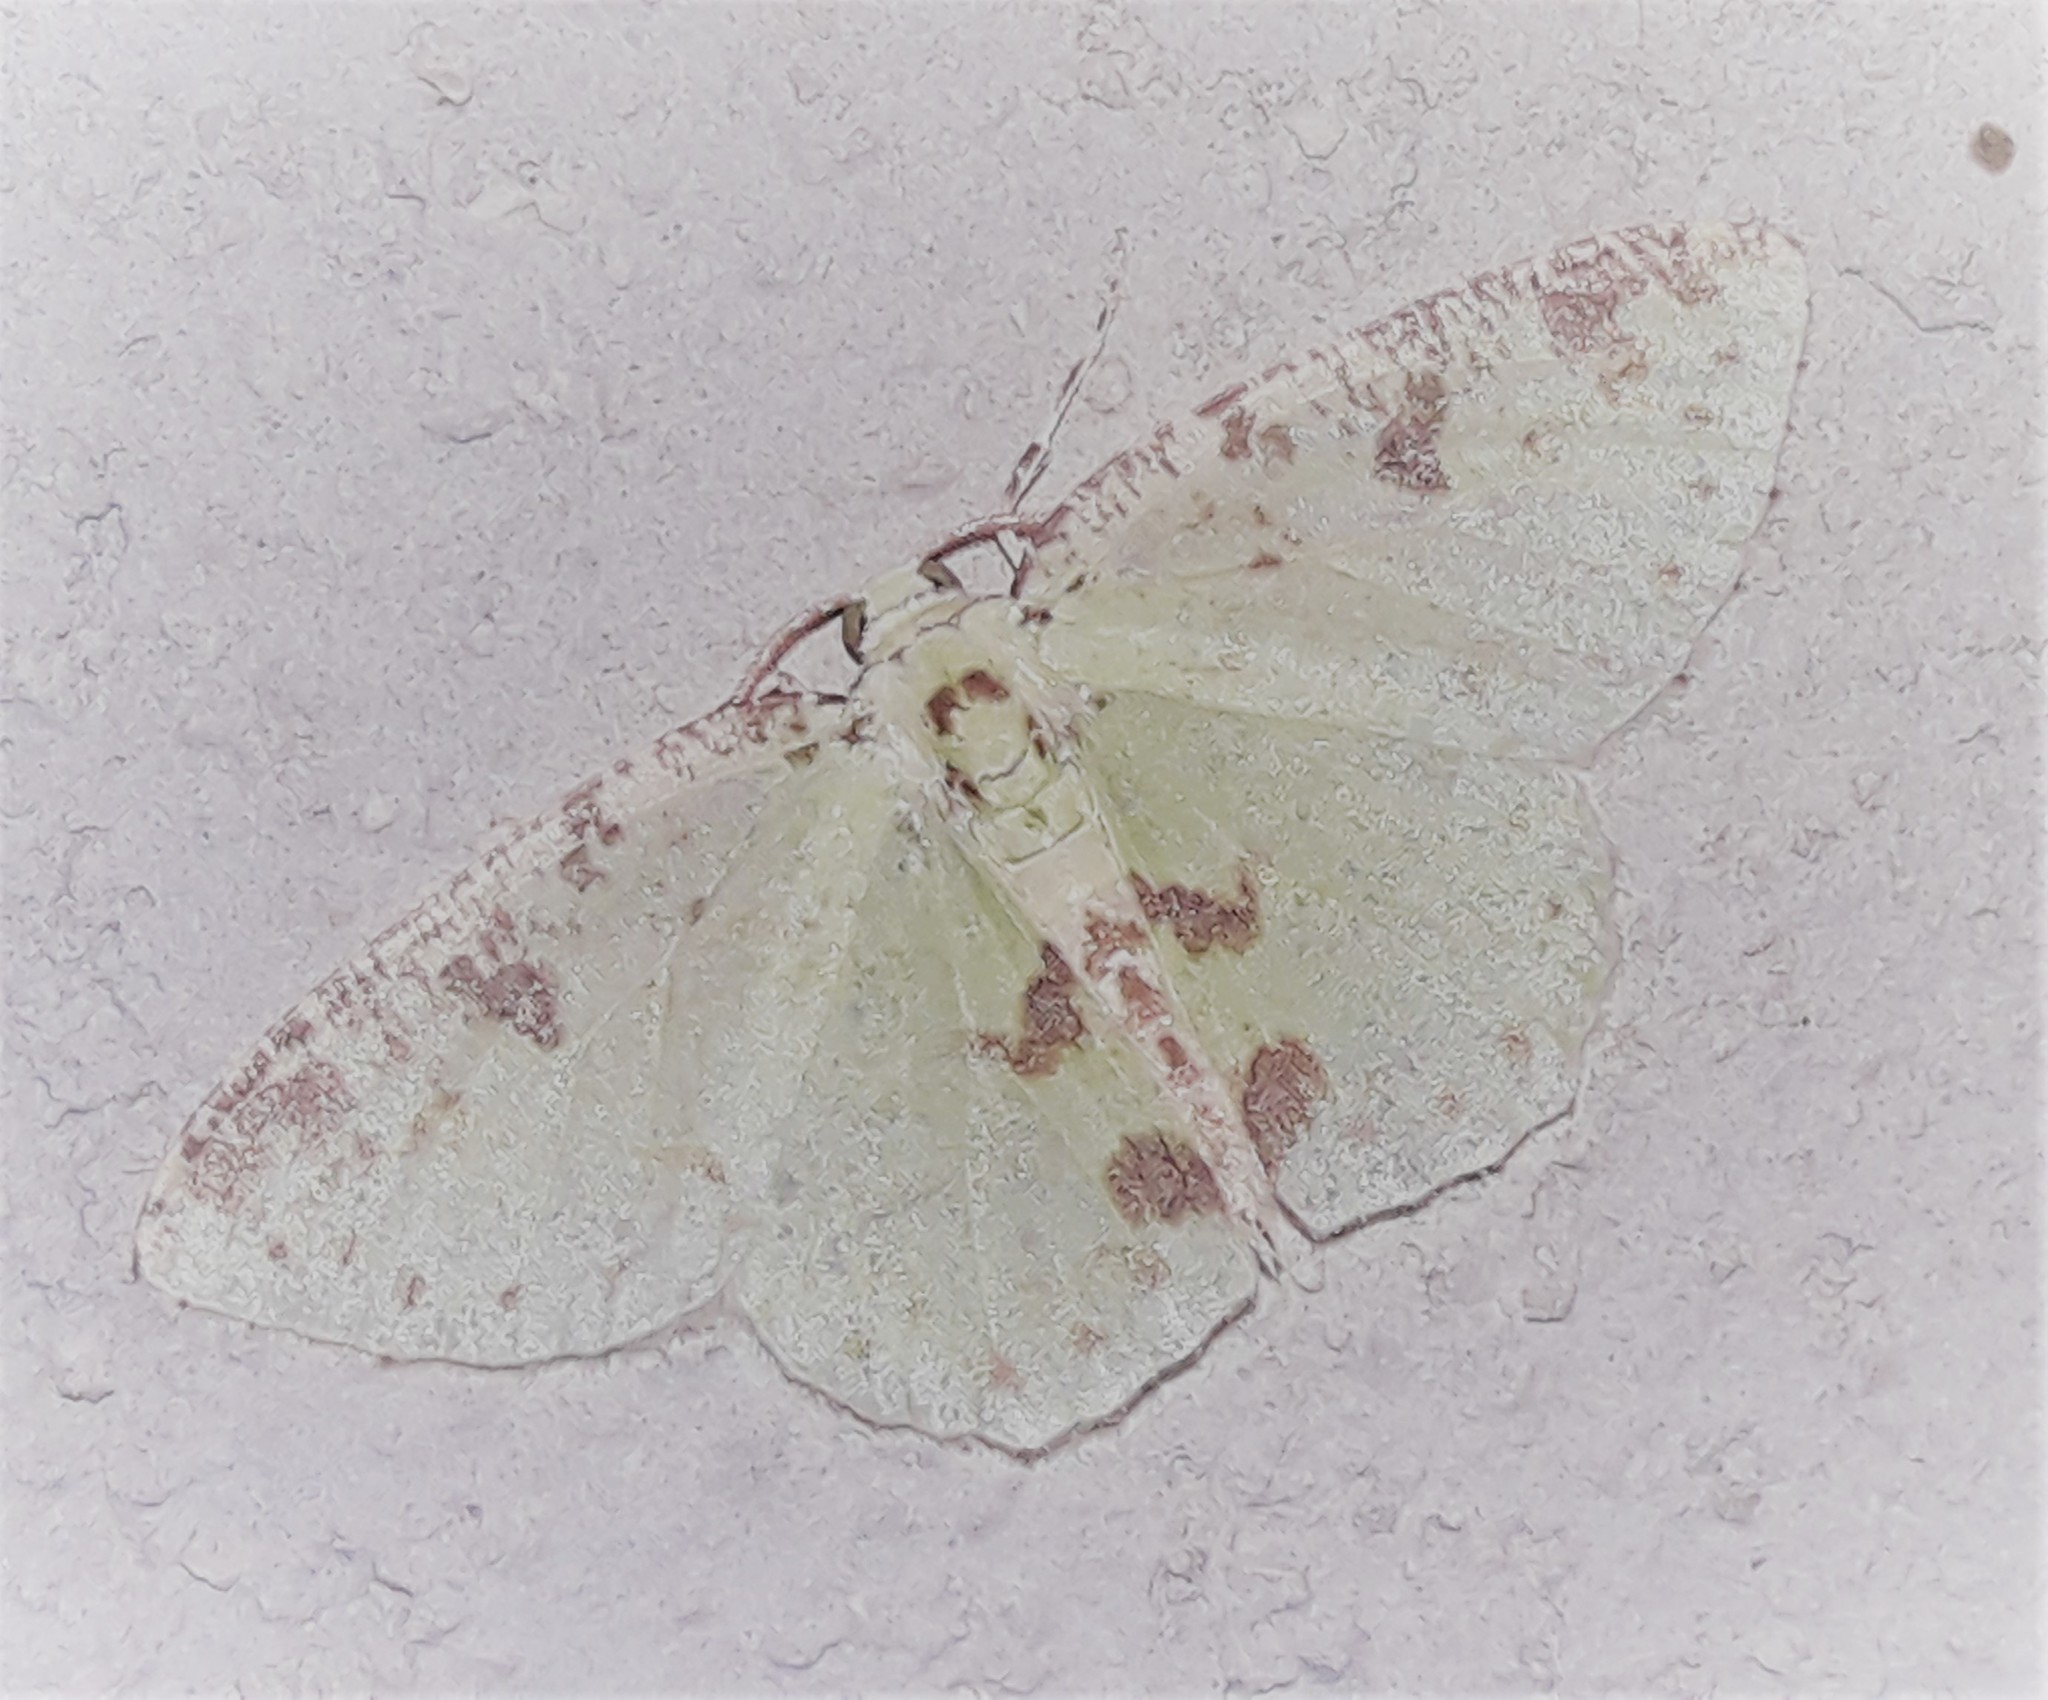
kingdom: Animalia
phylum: Arthropoda
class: Insecta
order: Lepidoptera
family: Geometridae
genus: Nemoria
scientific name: Nemoria eugeniae
